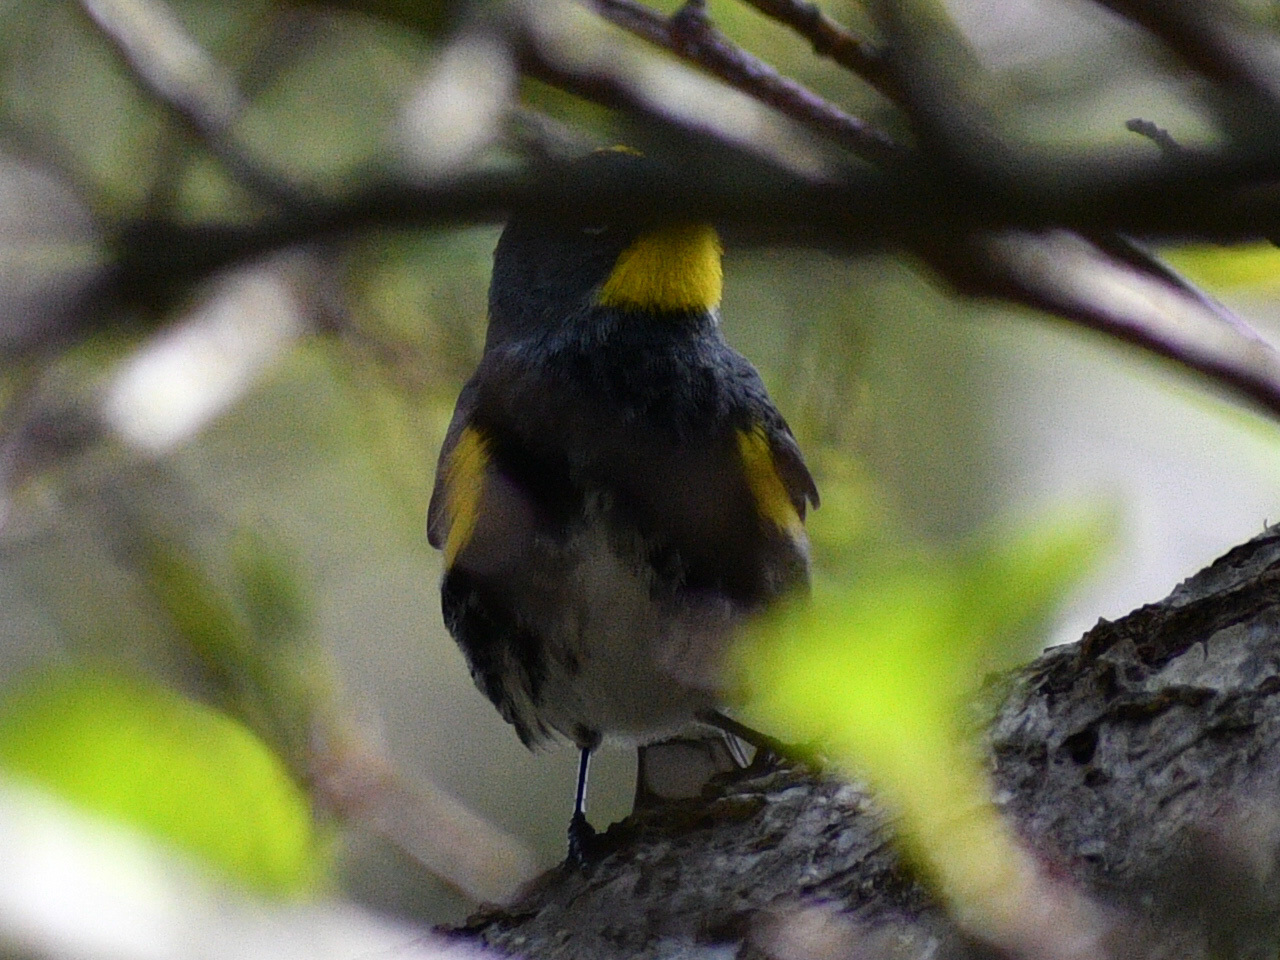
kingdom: Animalia
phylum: Chordata
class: Aves
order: Passeriformes
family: Parulidae
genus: Setophaga
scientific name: Setophaga auduboni
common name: Audubon's warbler
